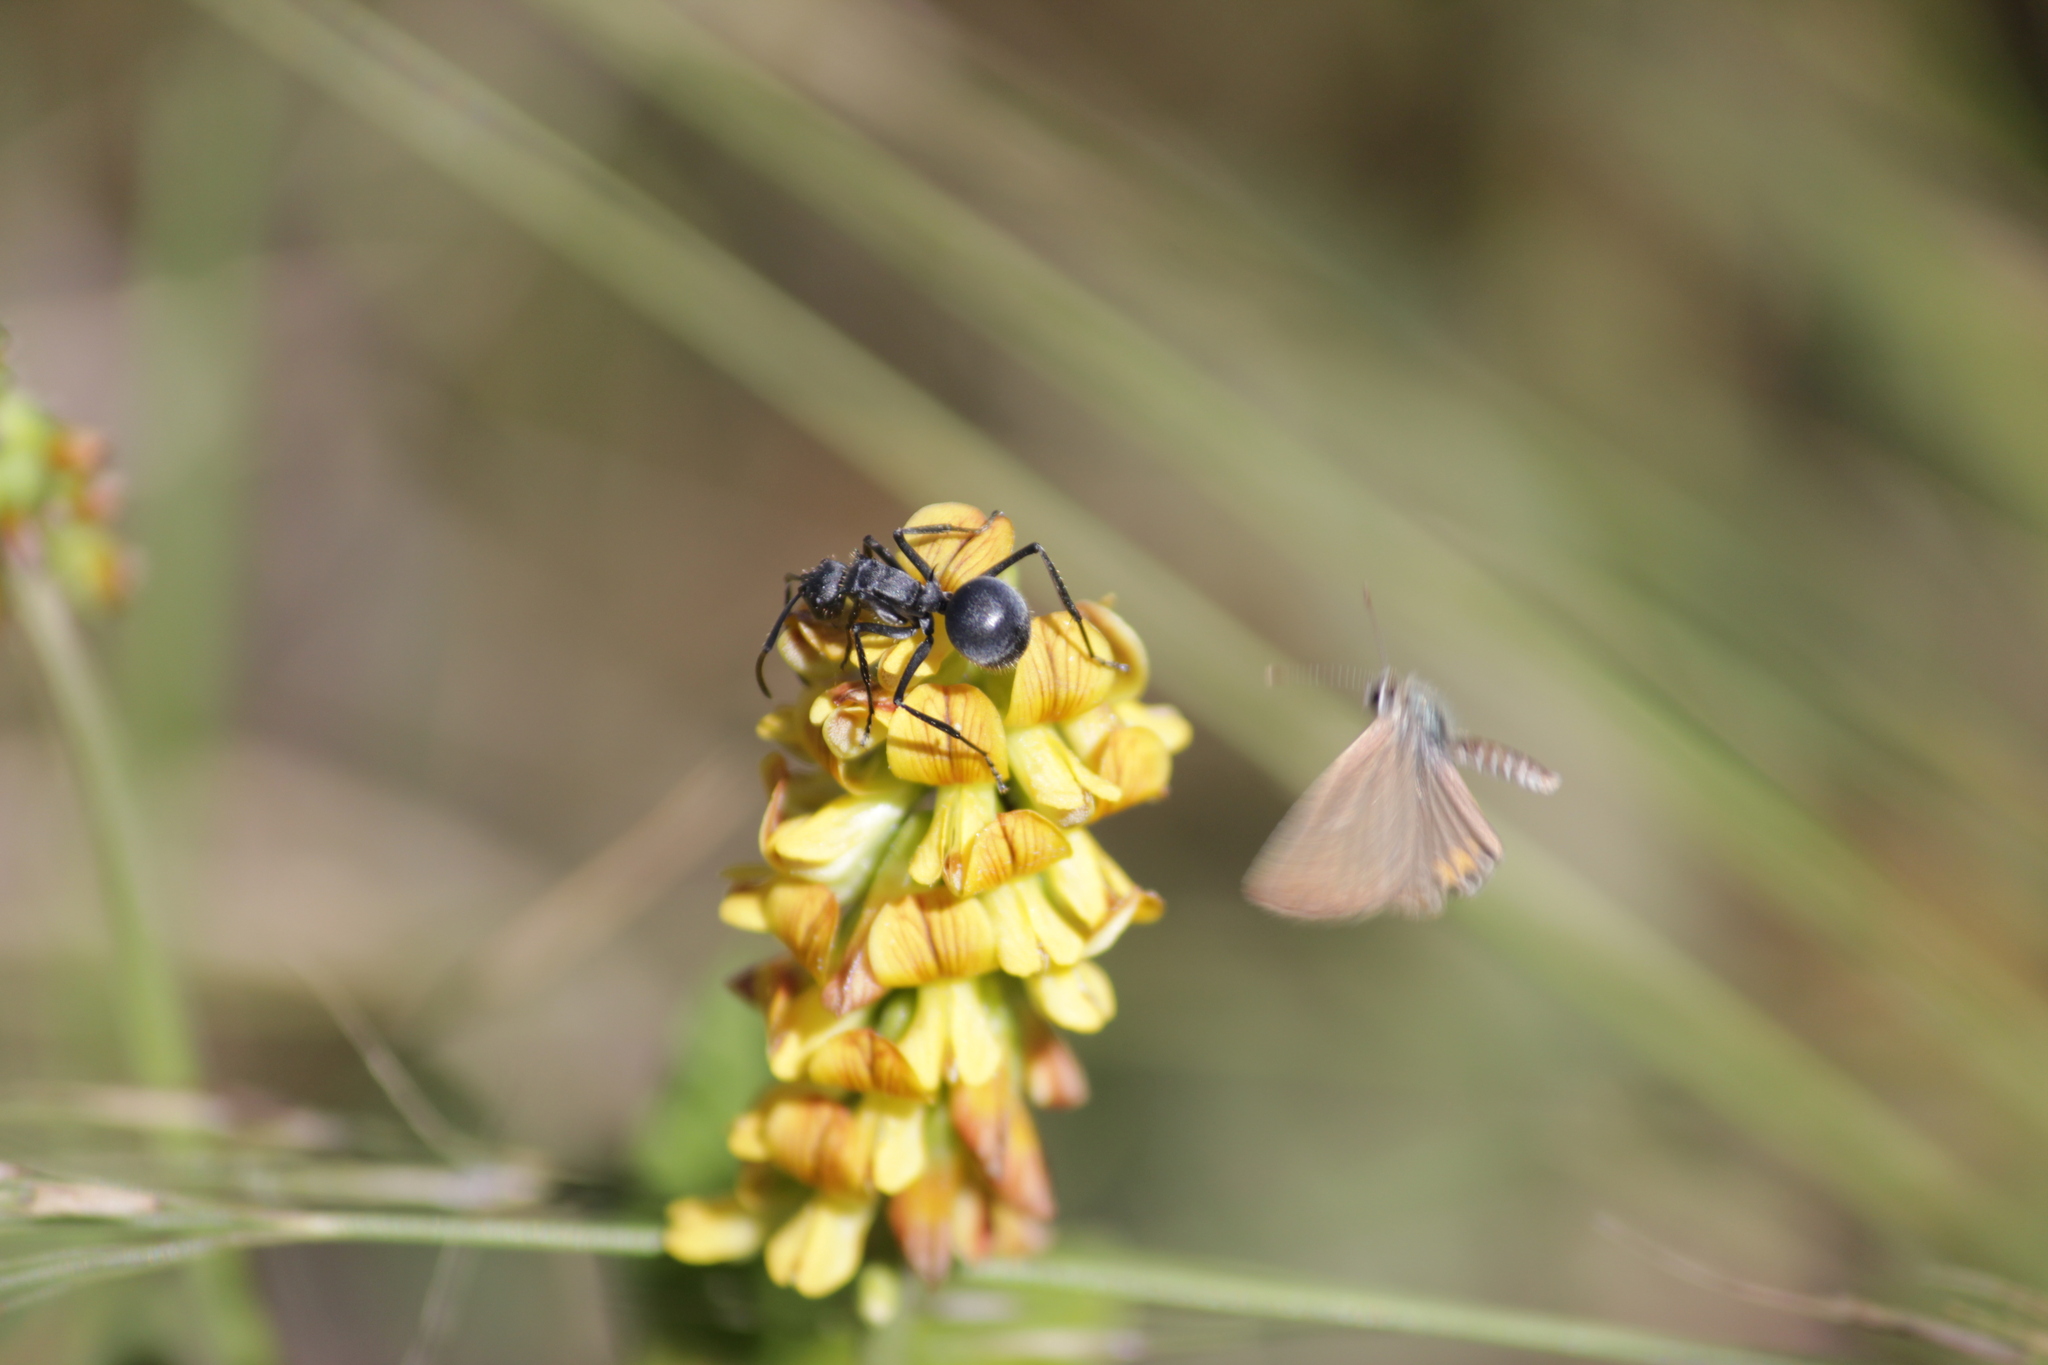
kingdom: Animalia
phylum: Arthropoda
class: Insecta
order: Hymenoptera
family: Formicidae
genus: Polyrhachis
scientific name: Polyrhachis schistacea
